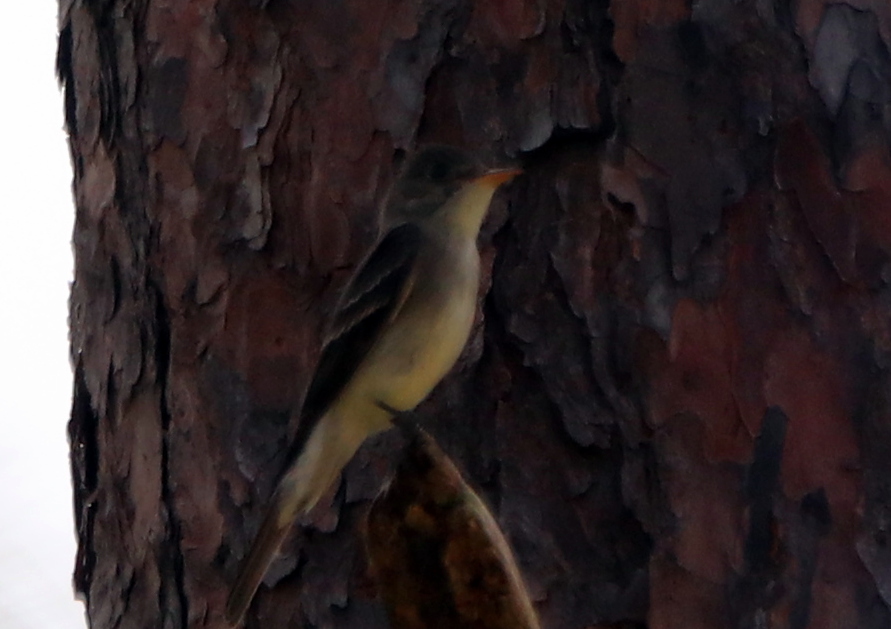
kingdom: Animalia
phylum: Chordata
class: Aves
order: Passeriformes
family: Tyrannidae
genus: Contopus
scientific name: Contopus virens
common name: Eastern wood-pewee
